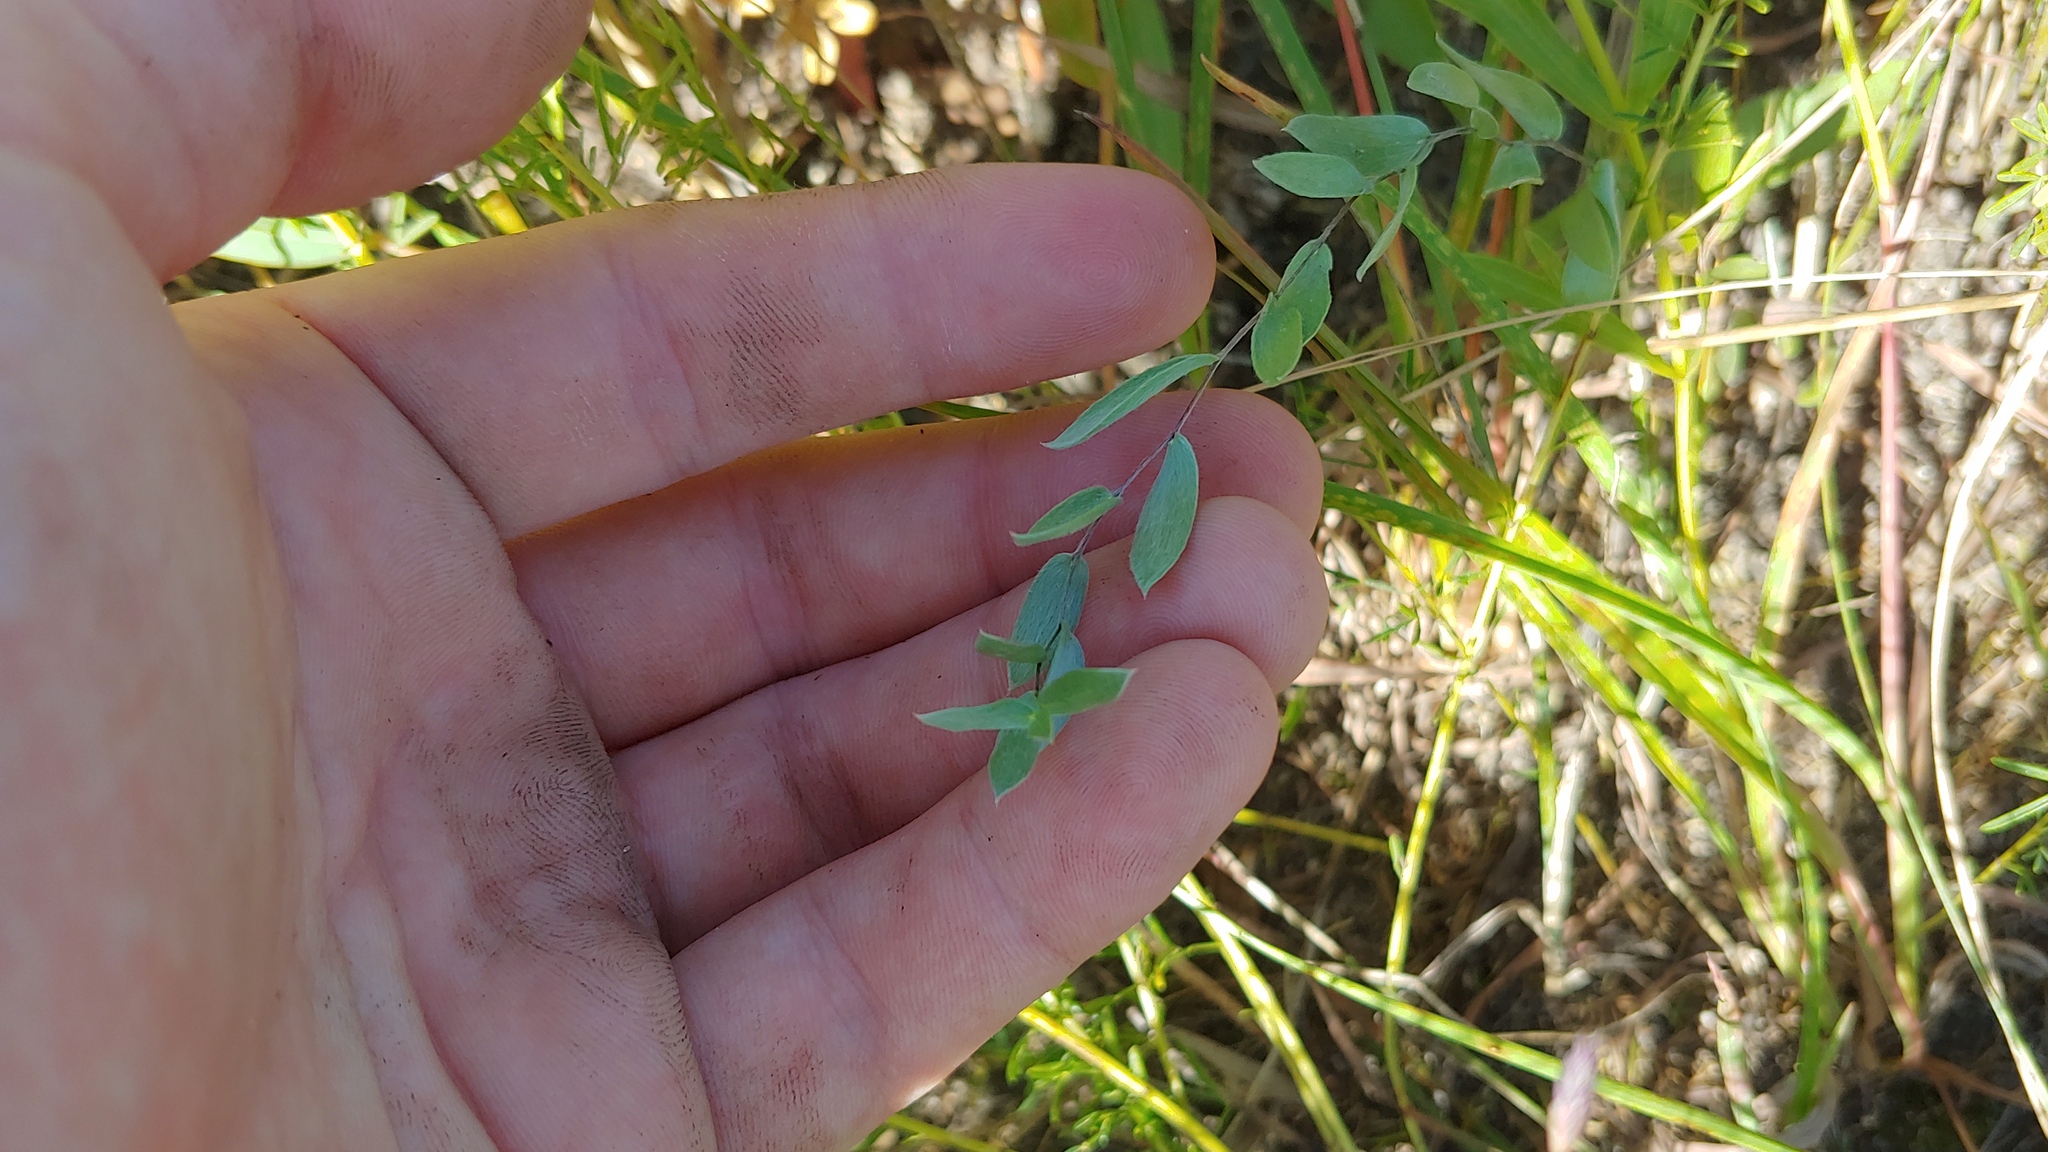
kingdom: Plantae
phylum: Tracheophyta
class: Magnoliopsida
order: Asterales
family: Asteraceae
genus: Symphyotrichum
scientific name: Symphyotrichum sericeum
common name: Silky aster
